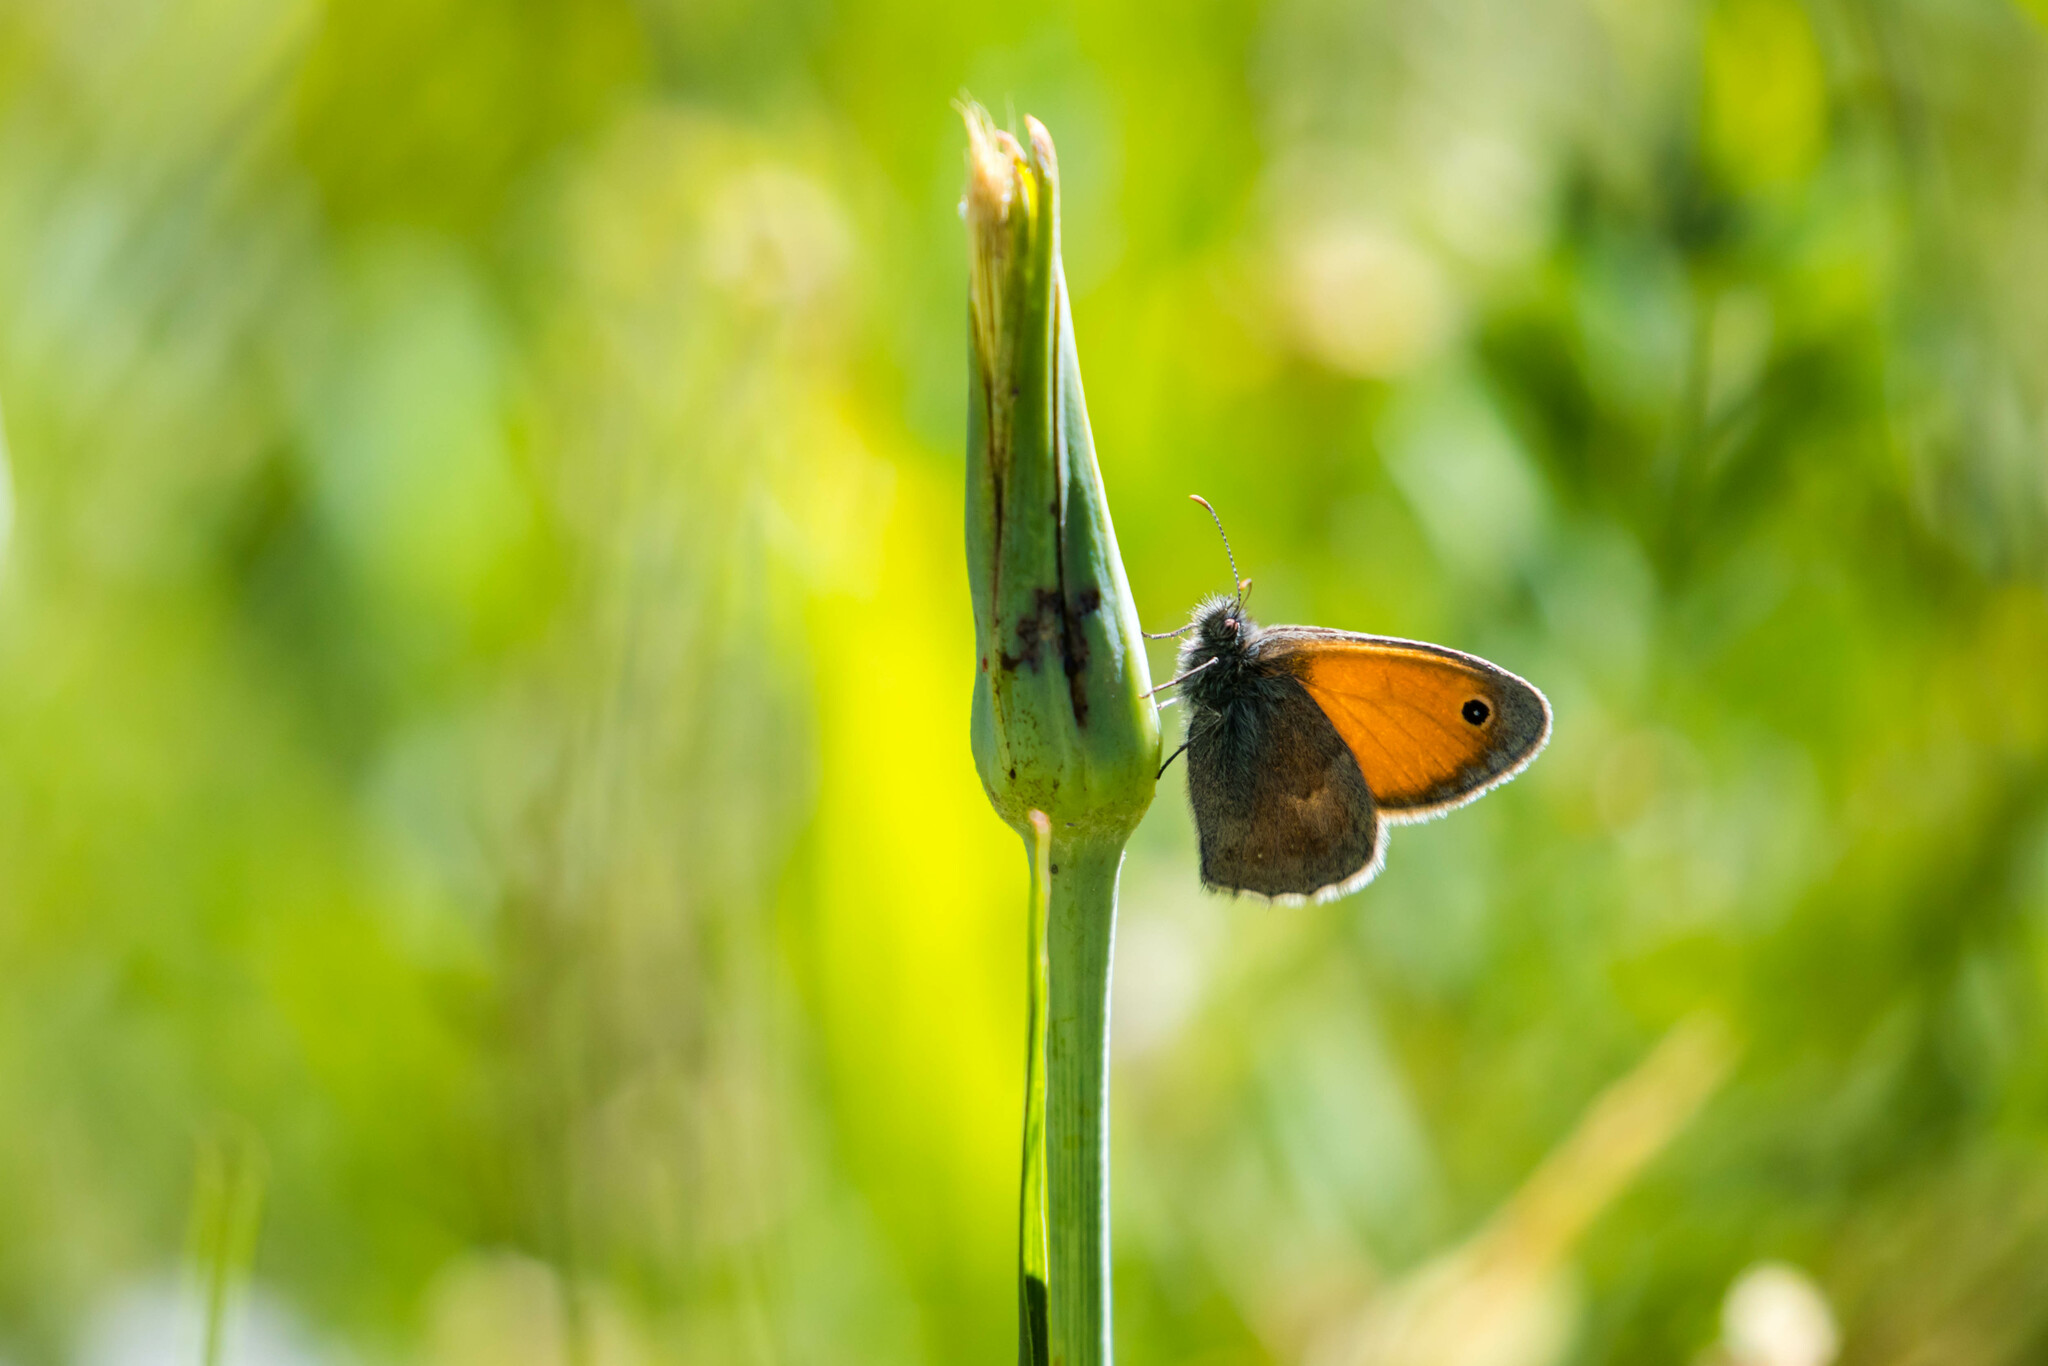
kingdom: Animalia
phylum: Arthropoda
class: Insecta
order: Lepidoptera
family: Nymphalidae
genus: Coenonympha
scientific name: Coenonympha pamphilus
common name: Small heath
